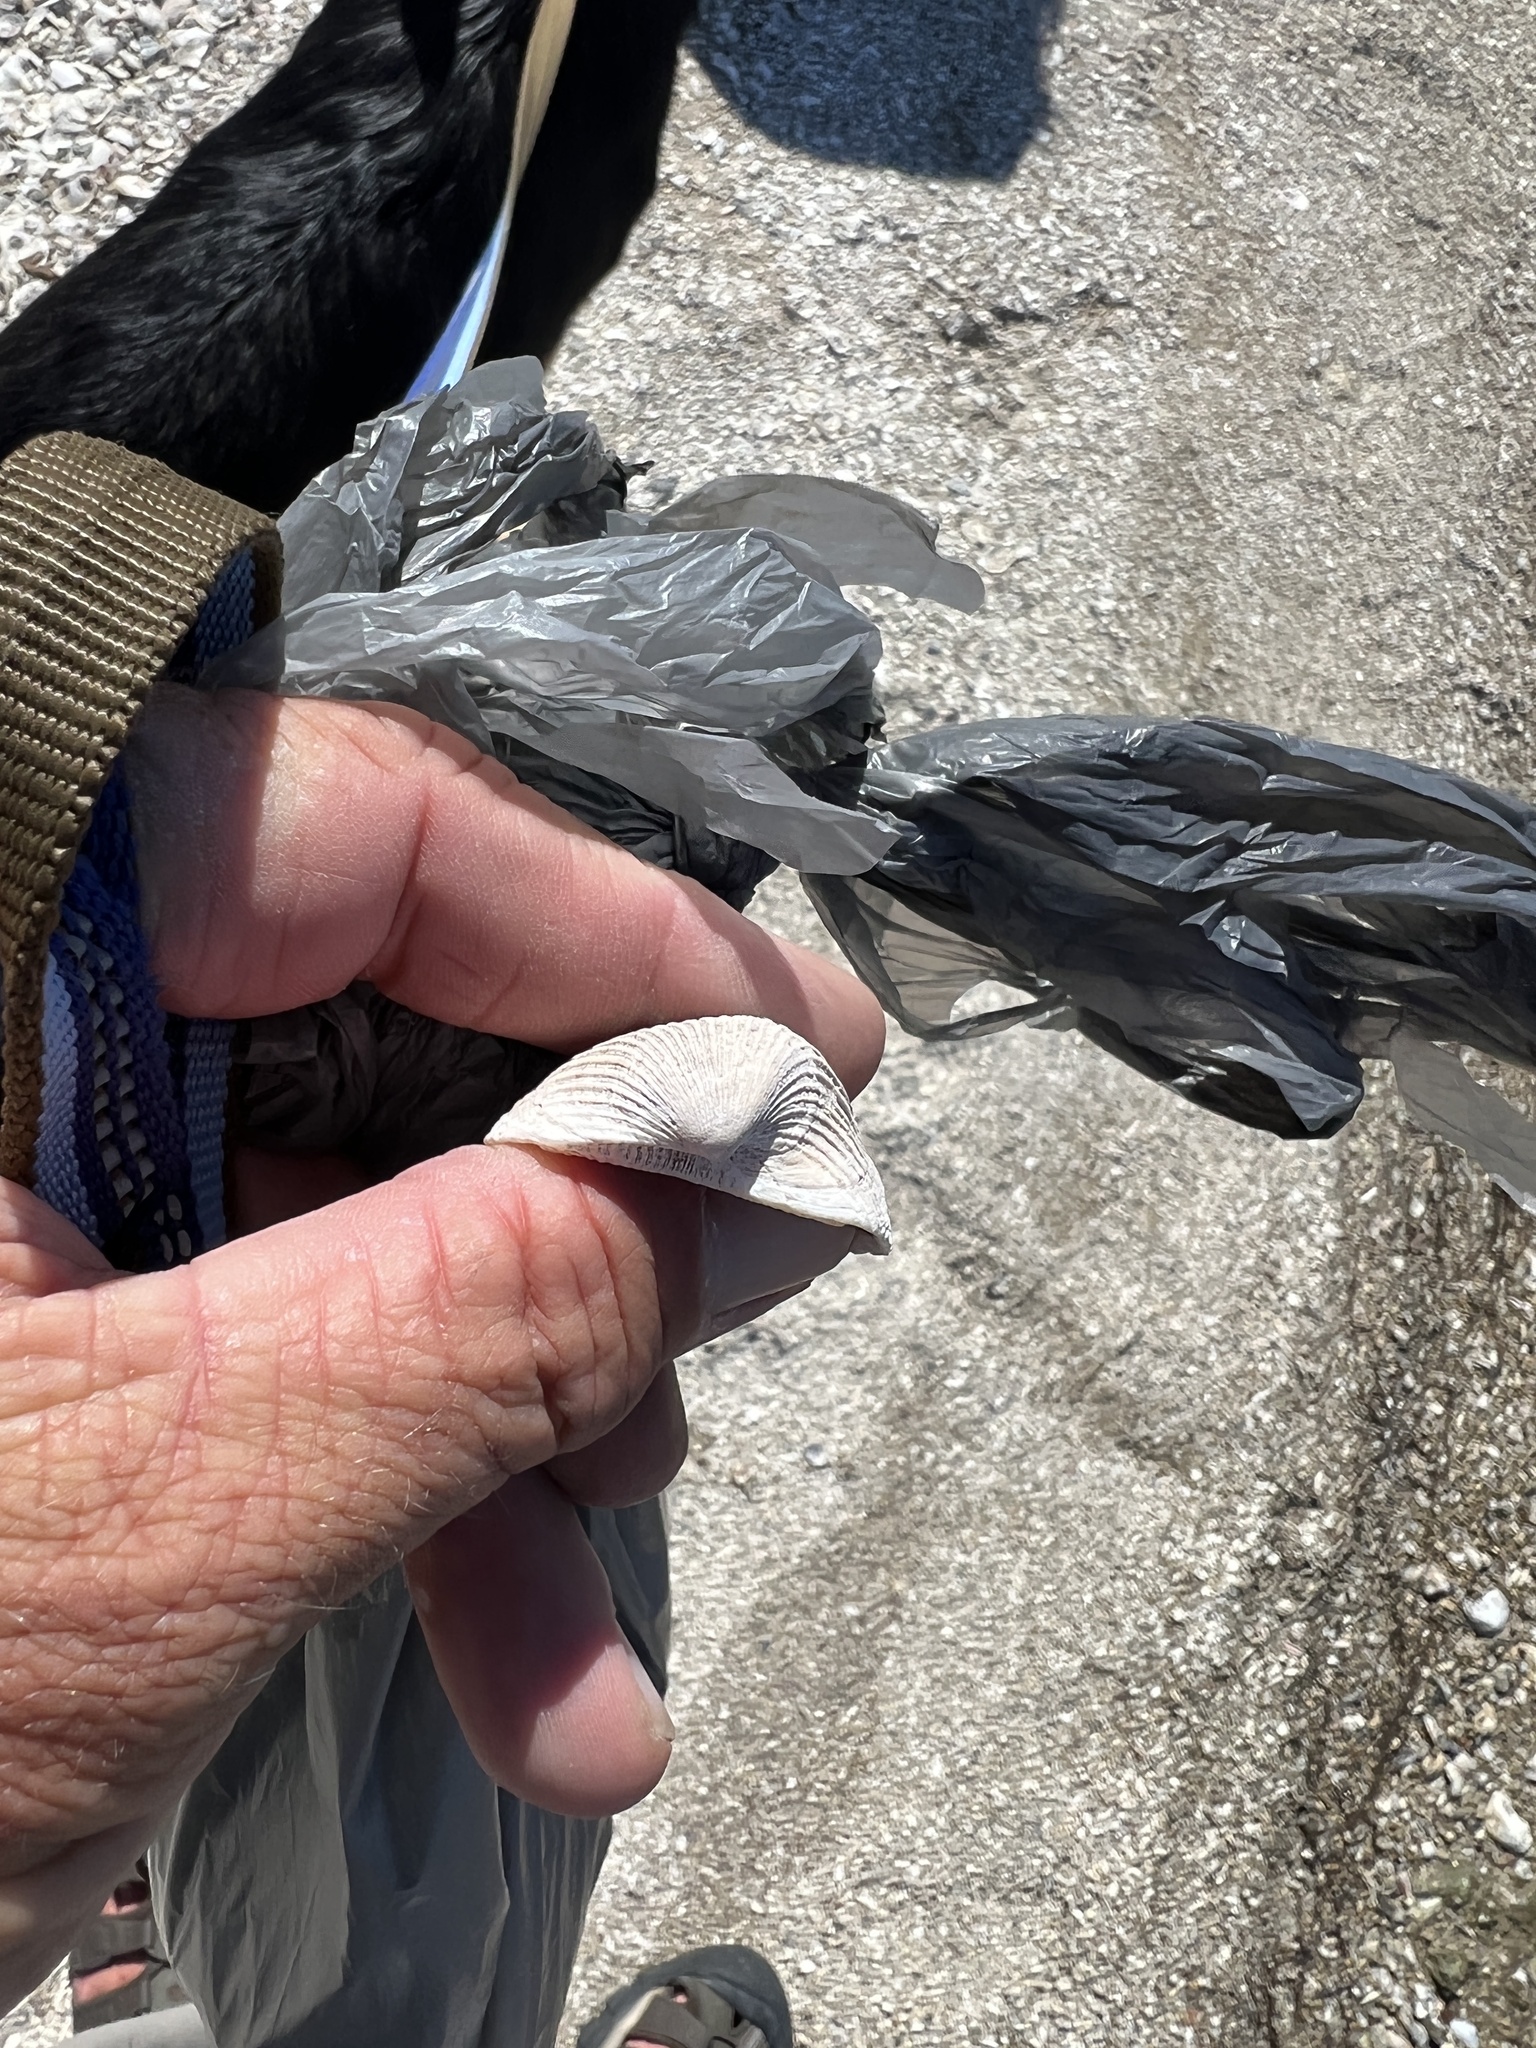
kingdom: Animalia
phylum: Mollusca
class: Bivalvia
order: Arcida
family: Noetiidae
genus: Noetia
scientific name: Noetia ponderosa
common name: Ponderous ark
